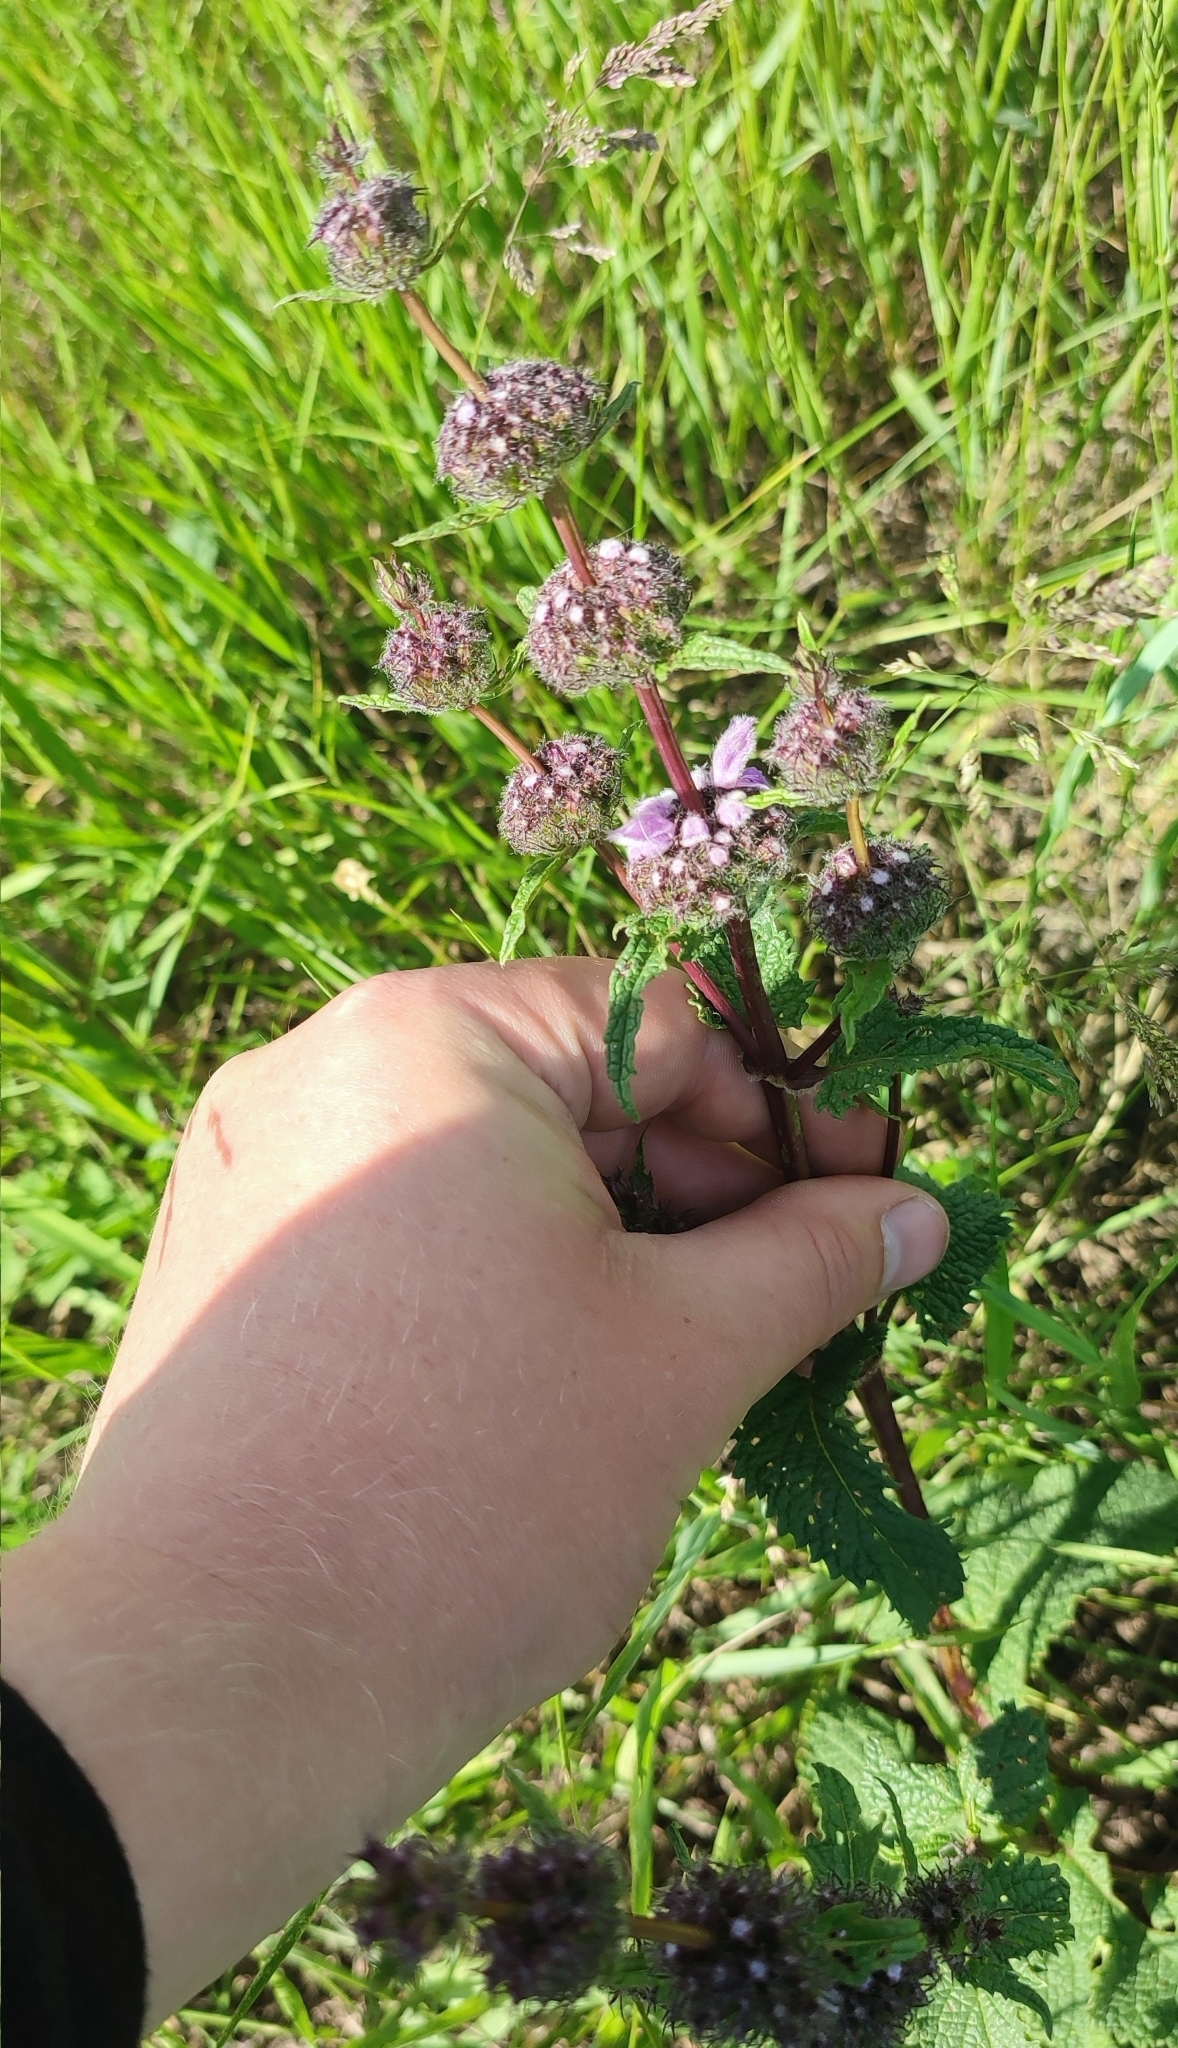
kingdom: Plantae
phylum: Tracheophyta
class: Magnoliopsida
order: Lamiales
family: Lamiaceae
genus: Phlomoides
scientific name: Phlomoides tuberosa
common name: Tuberous jerusalem sage
